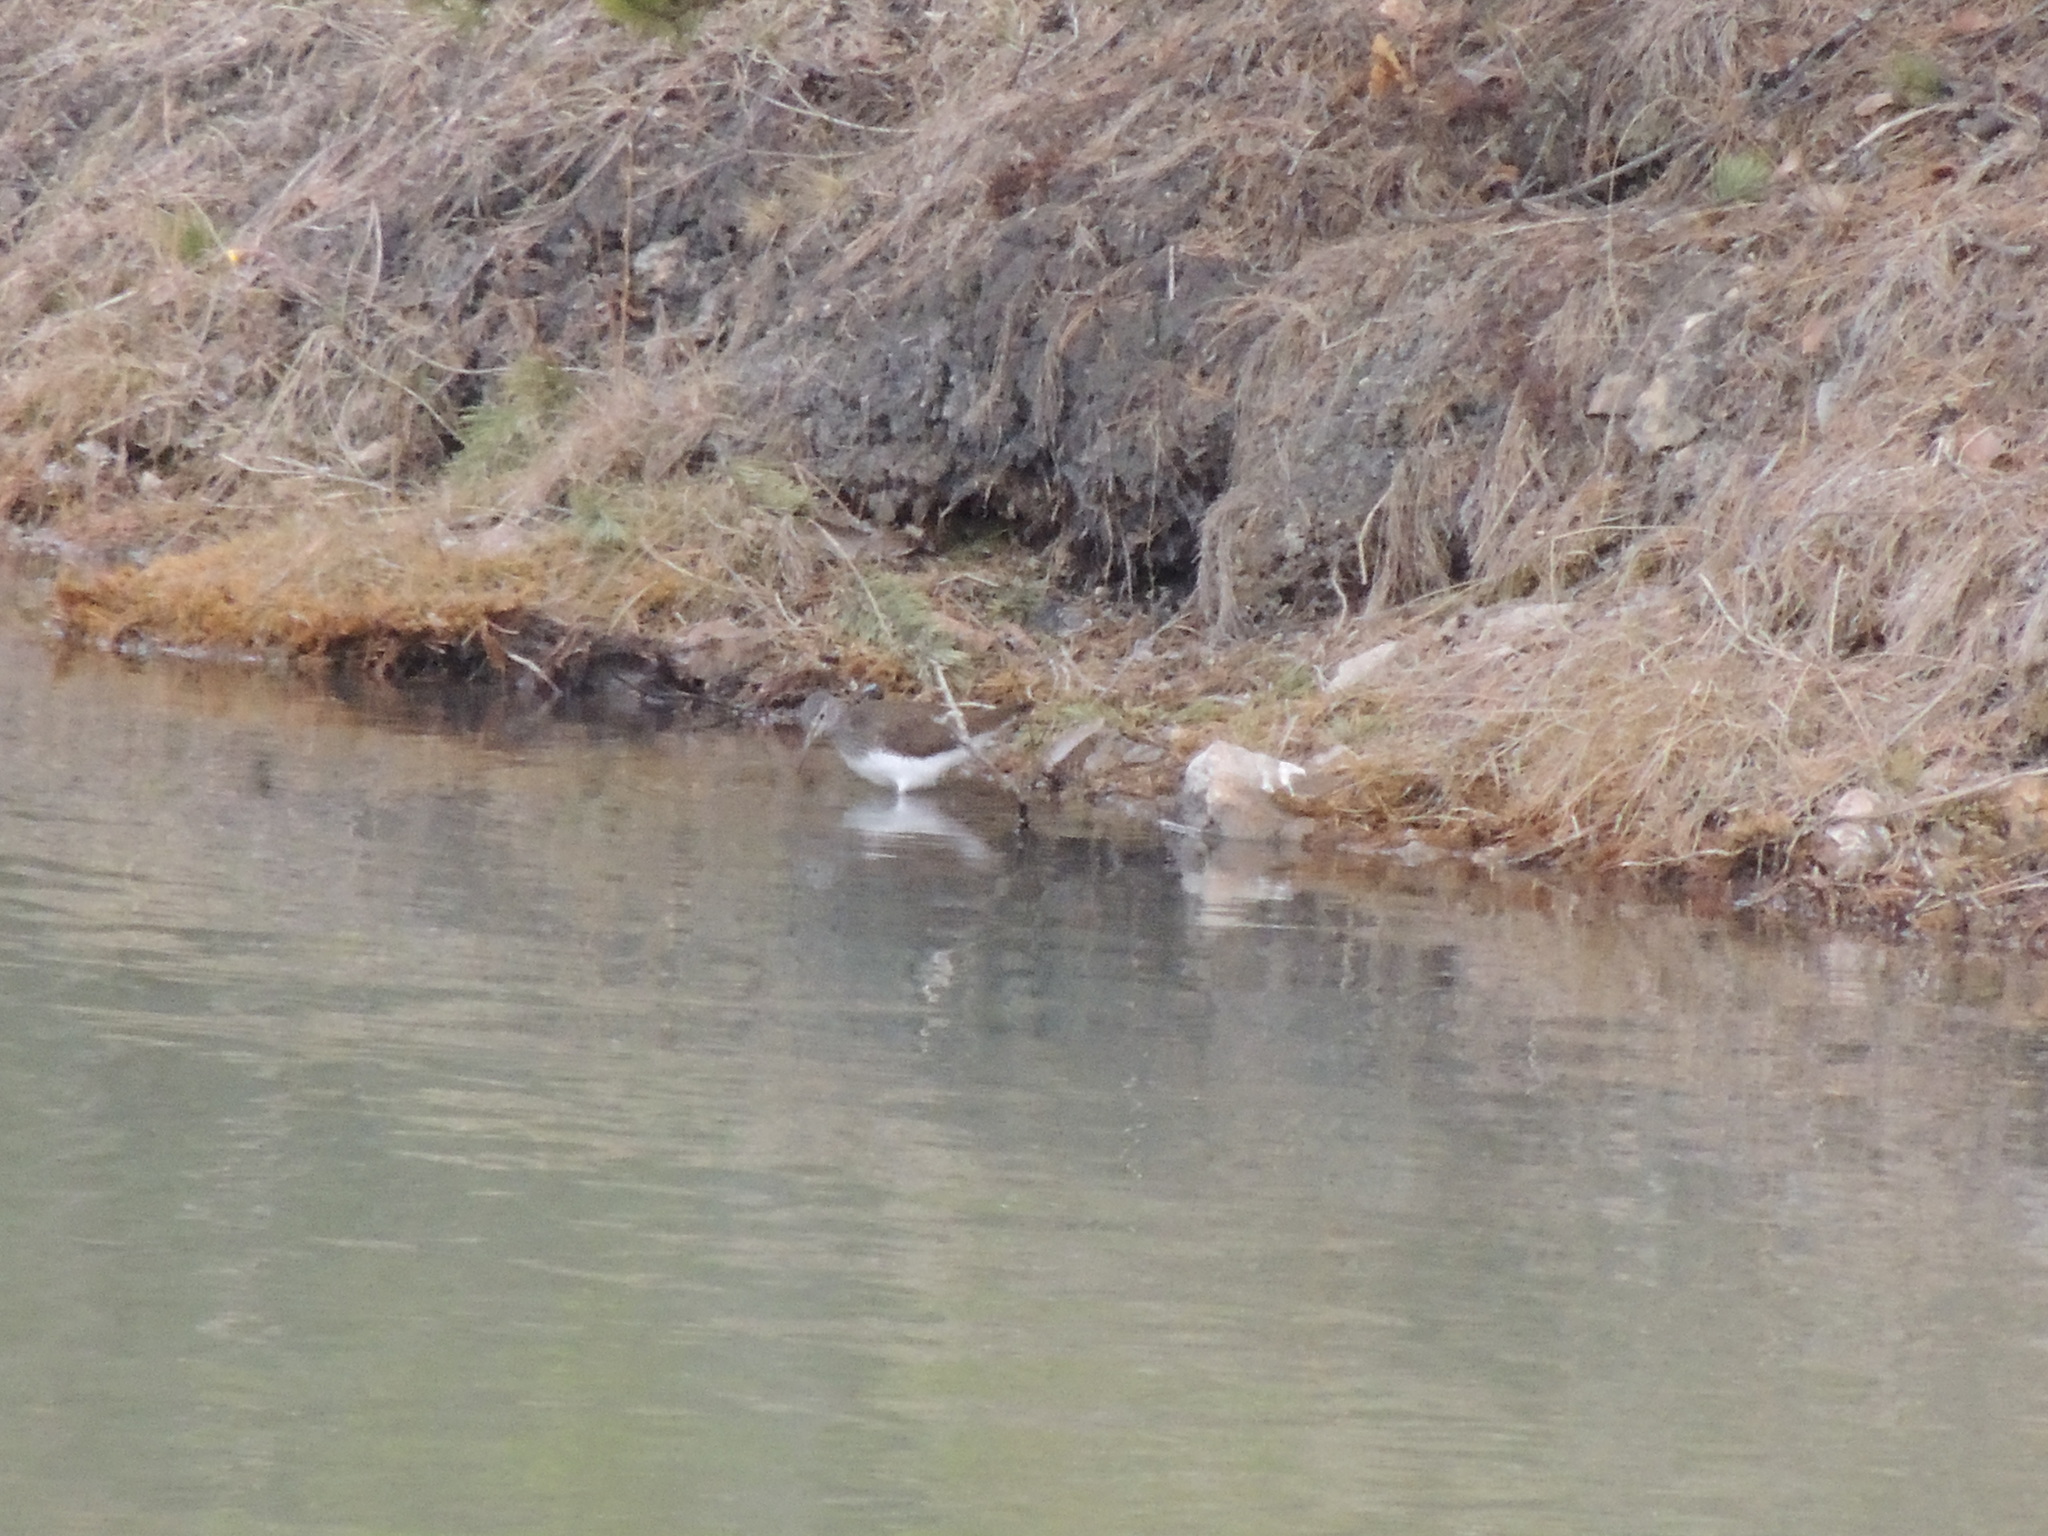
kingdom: Animalia
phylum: Chordata
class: Aves
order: Charadriiformes
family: Scolopacidae
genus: Tringa
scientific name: Tringa ochropus
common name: Green sandpiper
